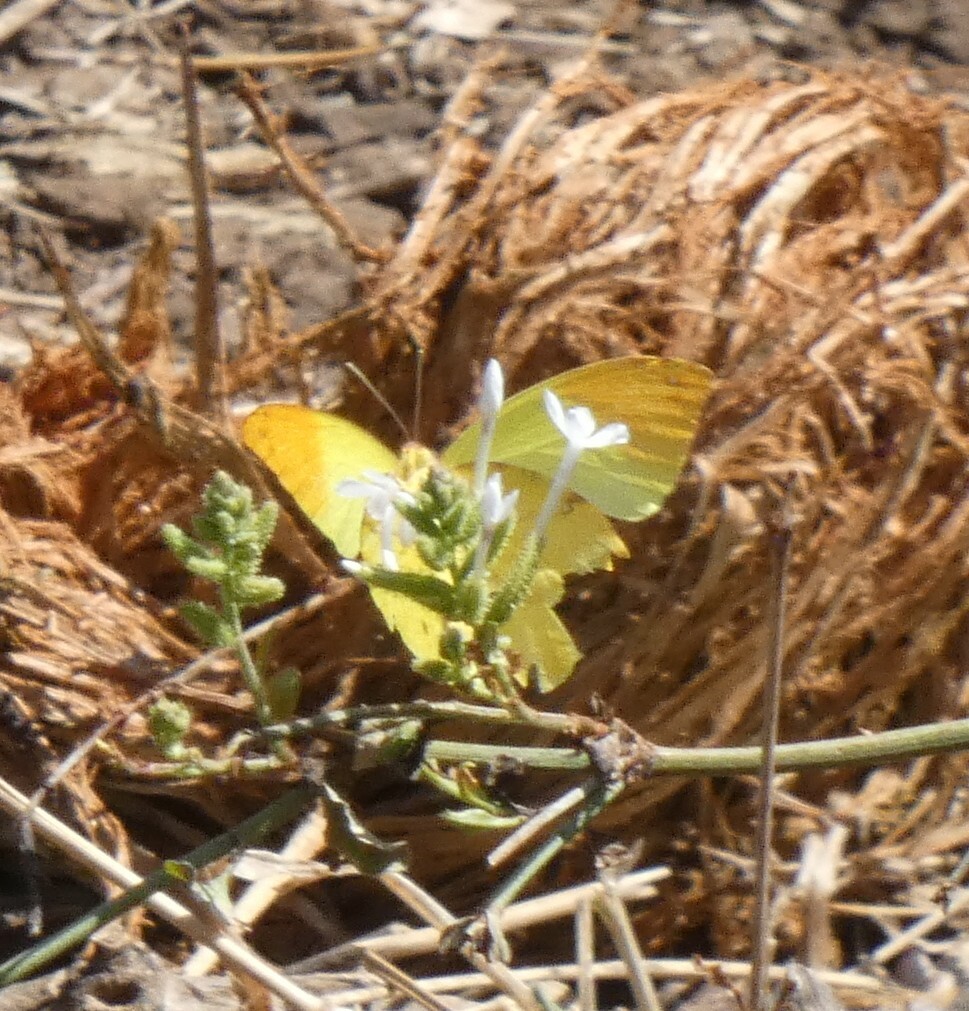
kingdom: Animalia
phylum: Arthropoda
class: Insecta
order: Lepidoptera
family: Pieridae
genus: Eronia
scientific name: Eronia leda
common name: Autumn leaf vagrant
